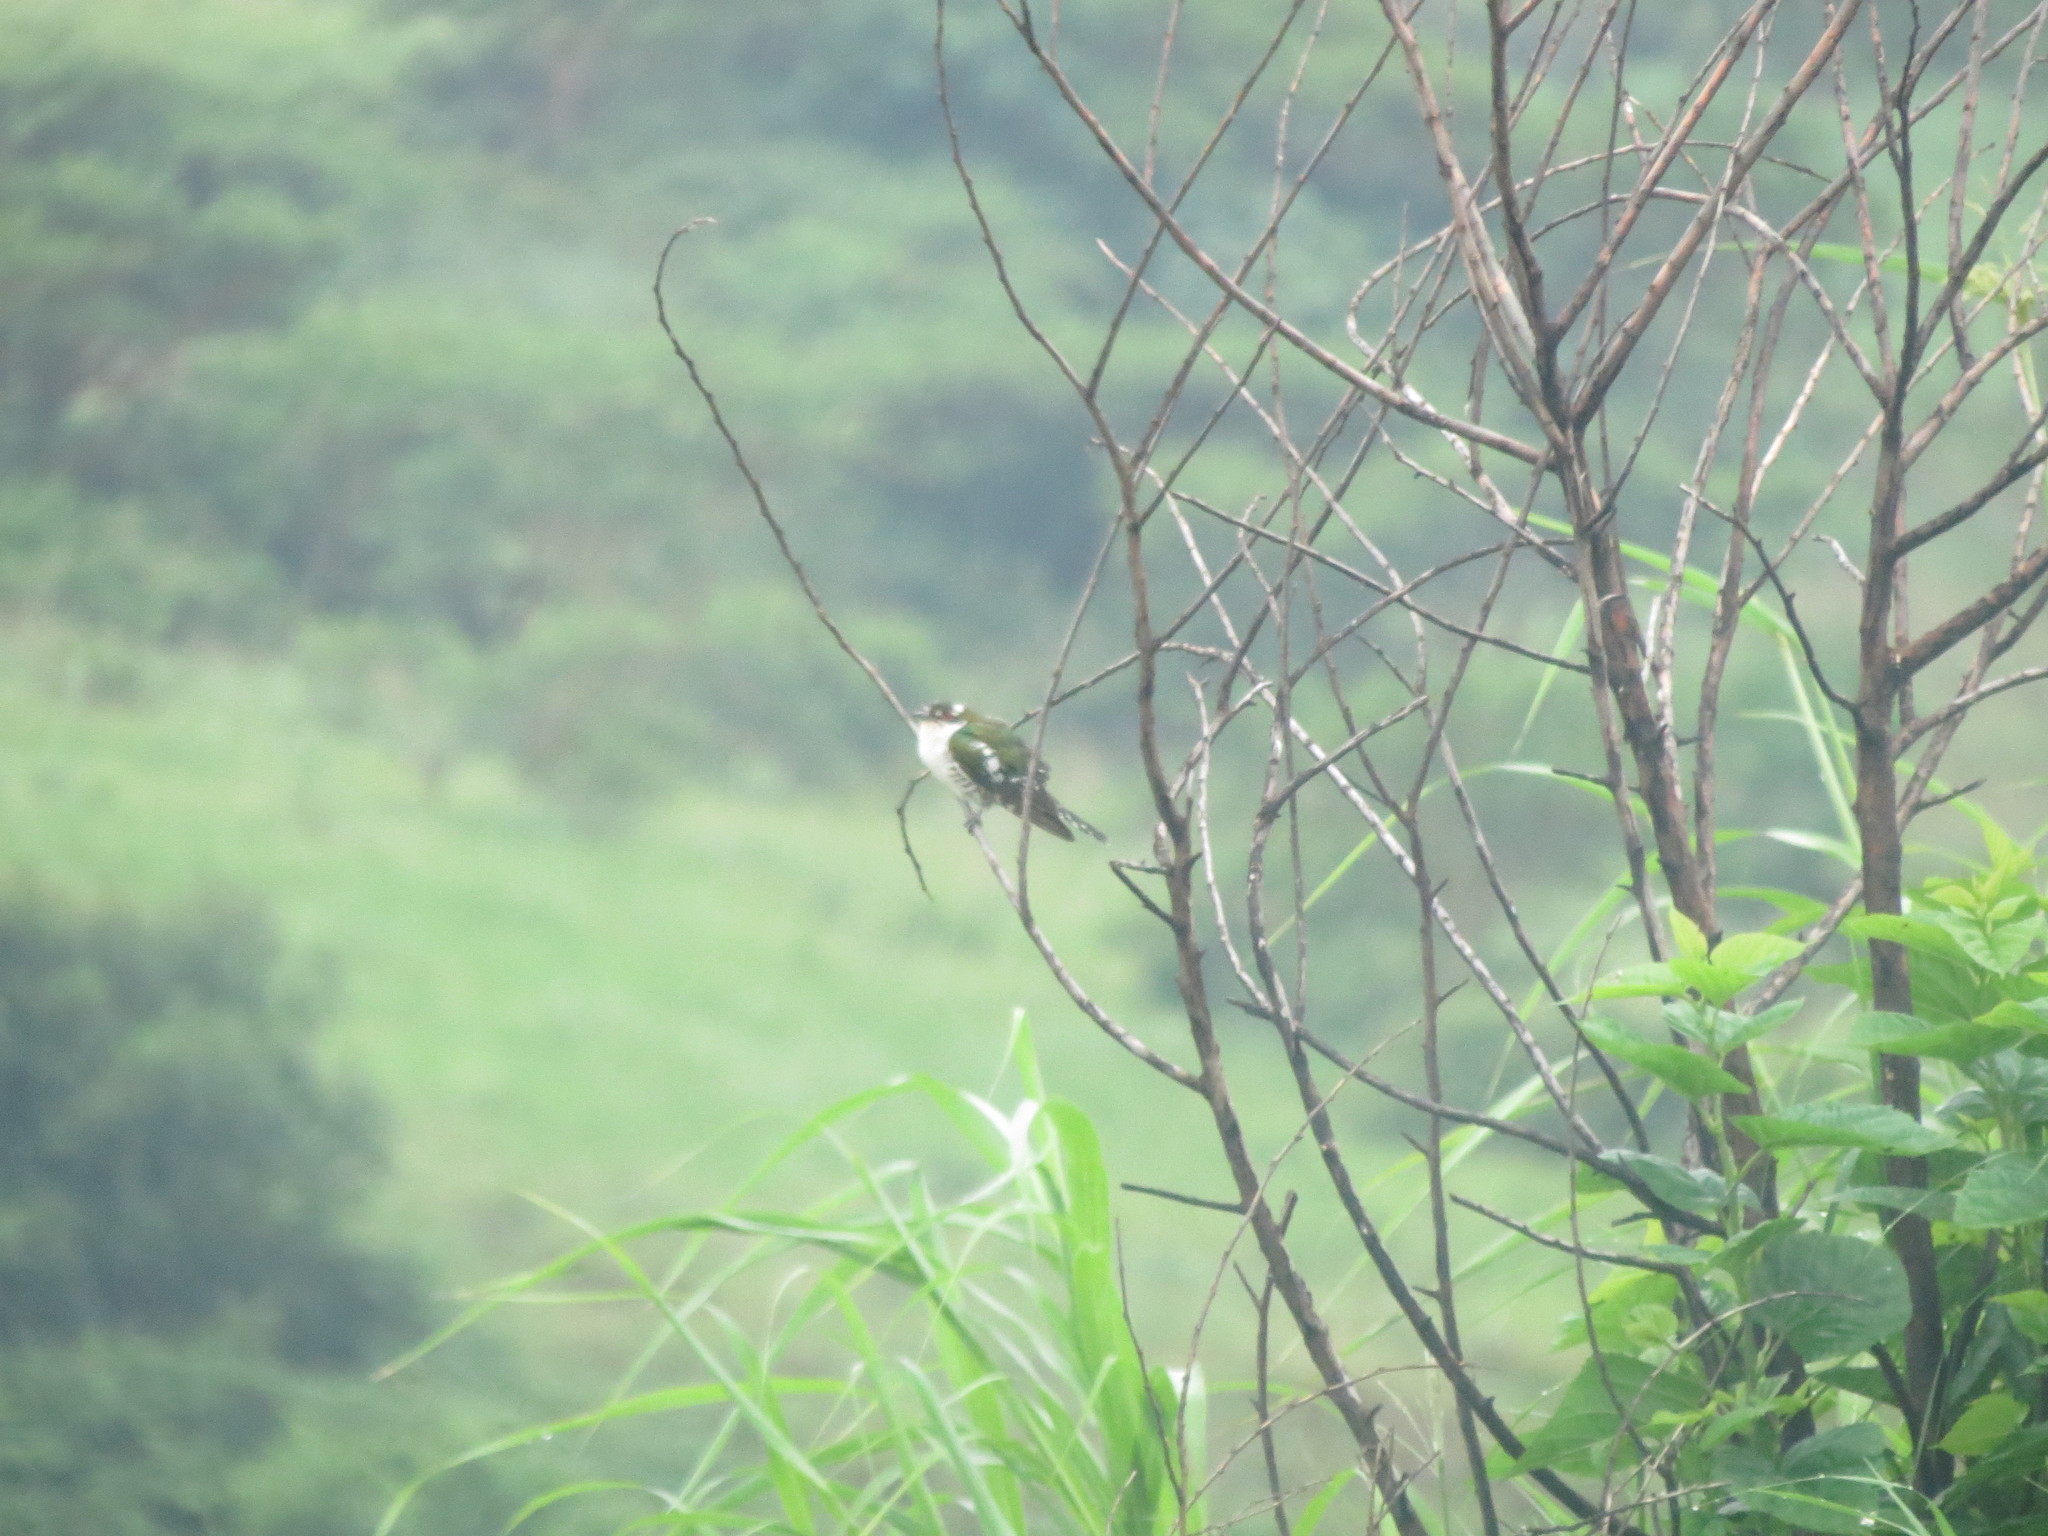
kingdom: Animalia
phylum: Chordata
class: Aves
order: Cuculiformes
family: Cuculidae
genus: Chrysococcyx
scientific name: Chrysococcyx caprius
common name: Diederik cuckoo
